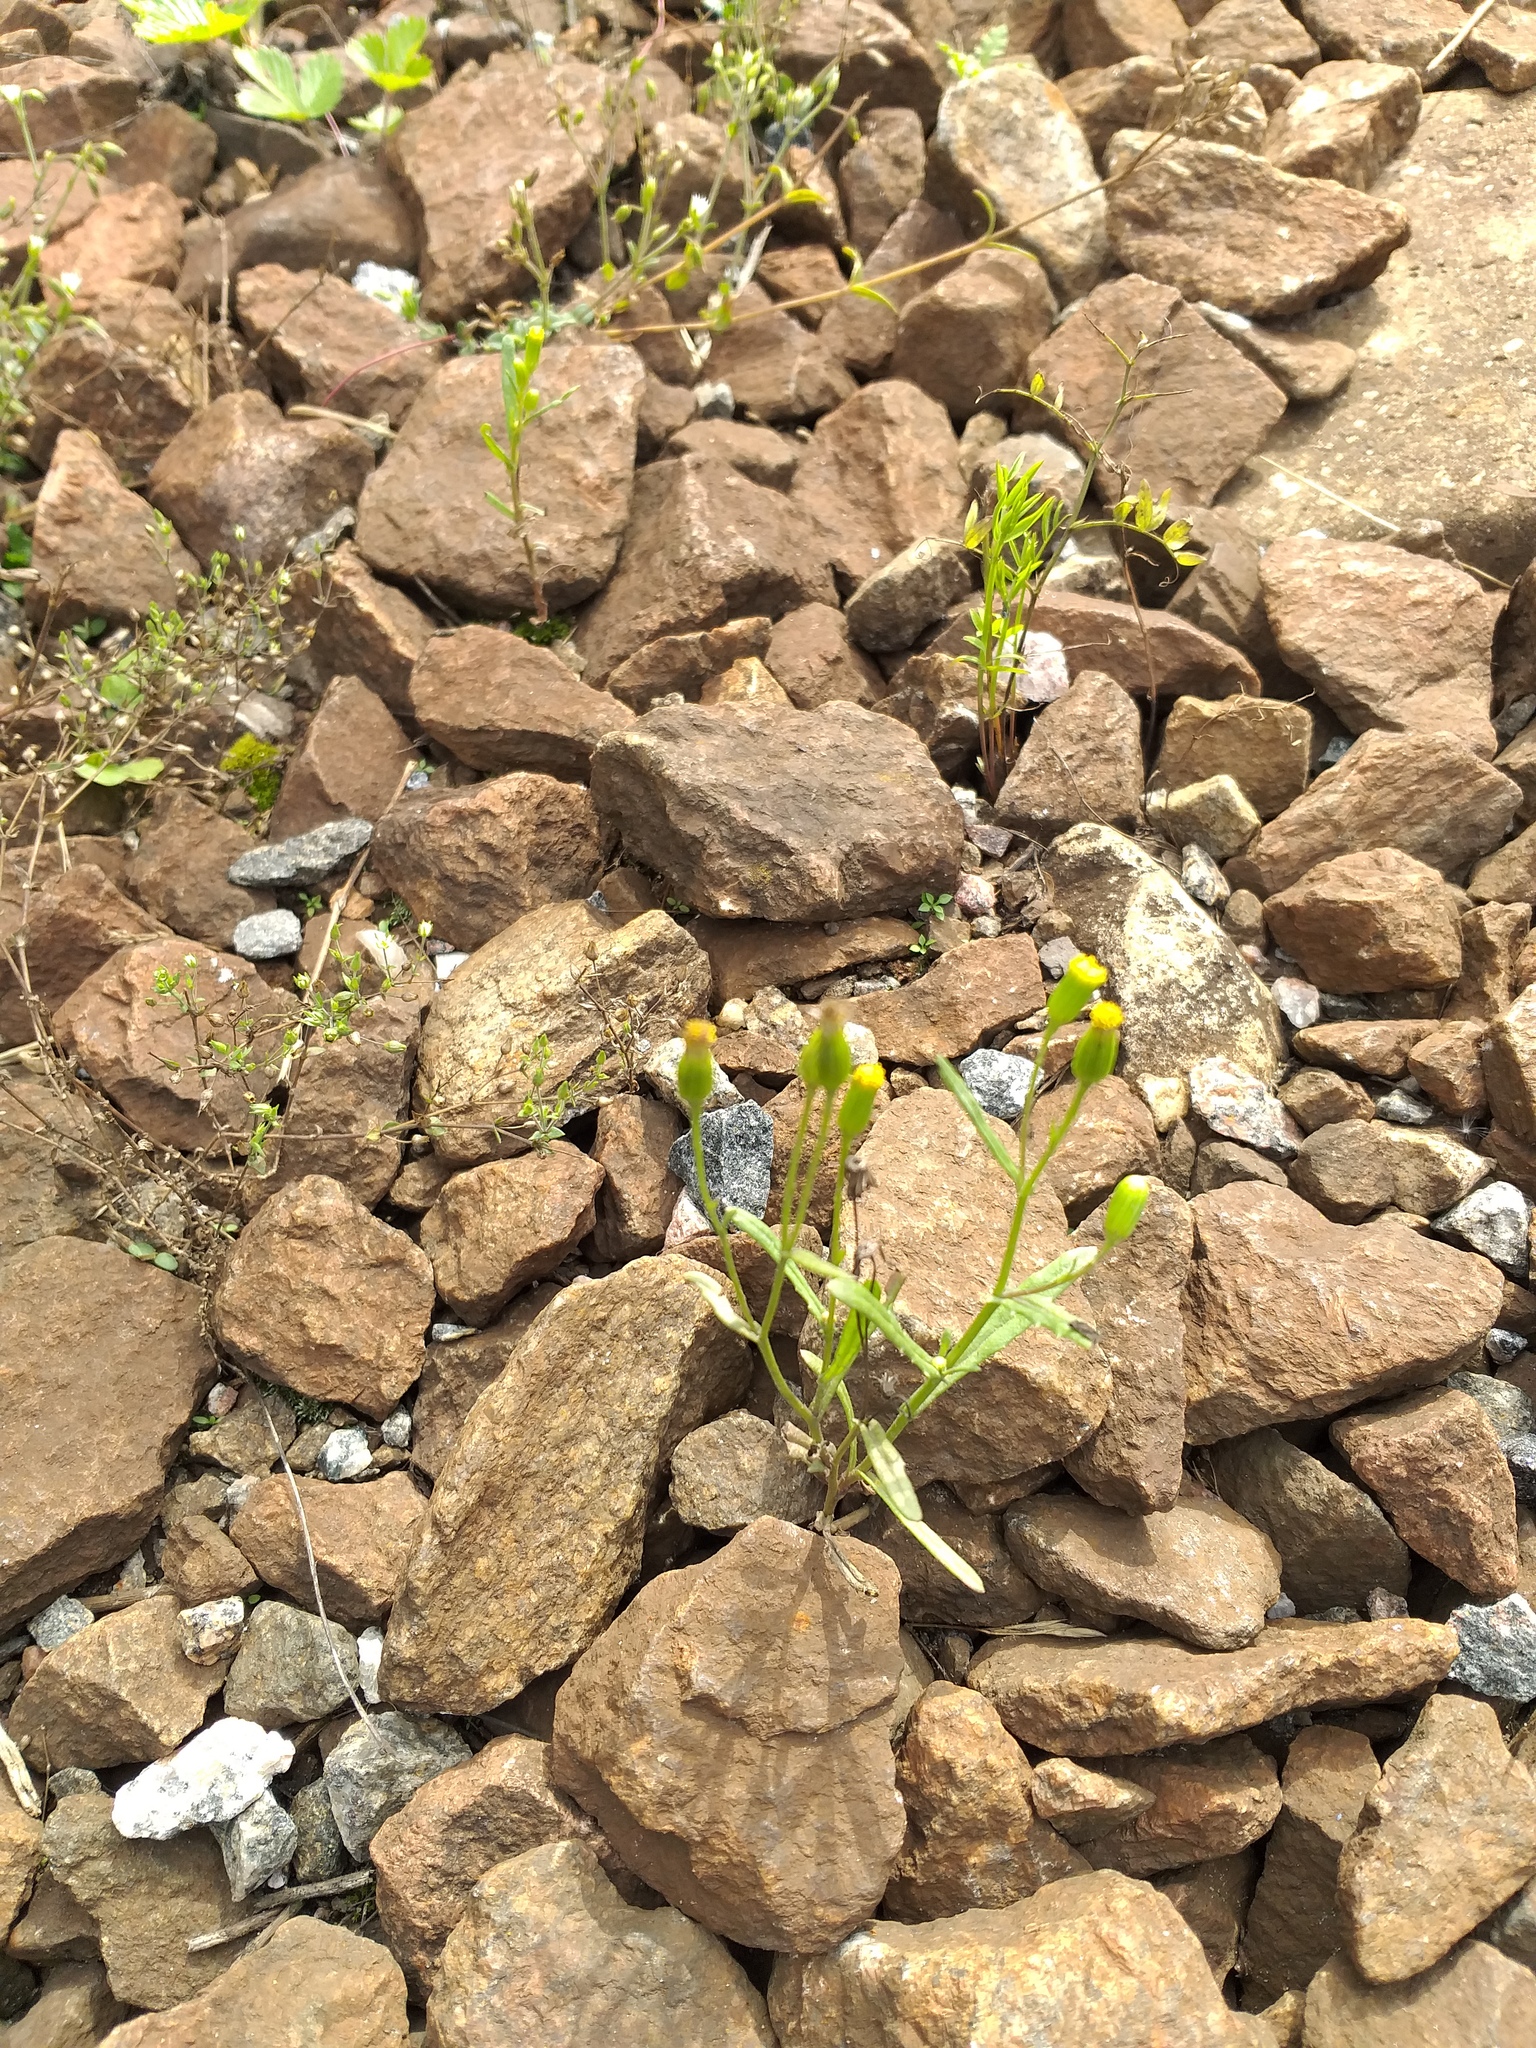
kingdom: Plantae
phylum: Tracheophyta
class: Magnoliopsida
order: Asterales
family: Asteraceae
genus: Senecio
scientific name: Senecio dubitabilis
